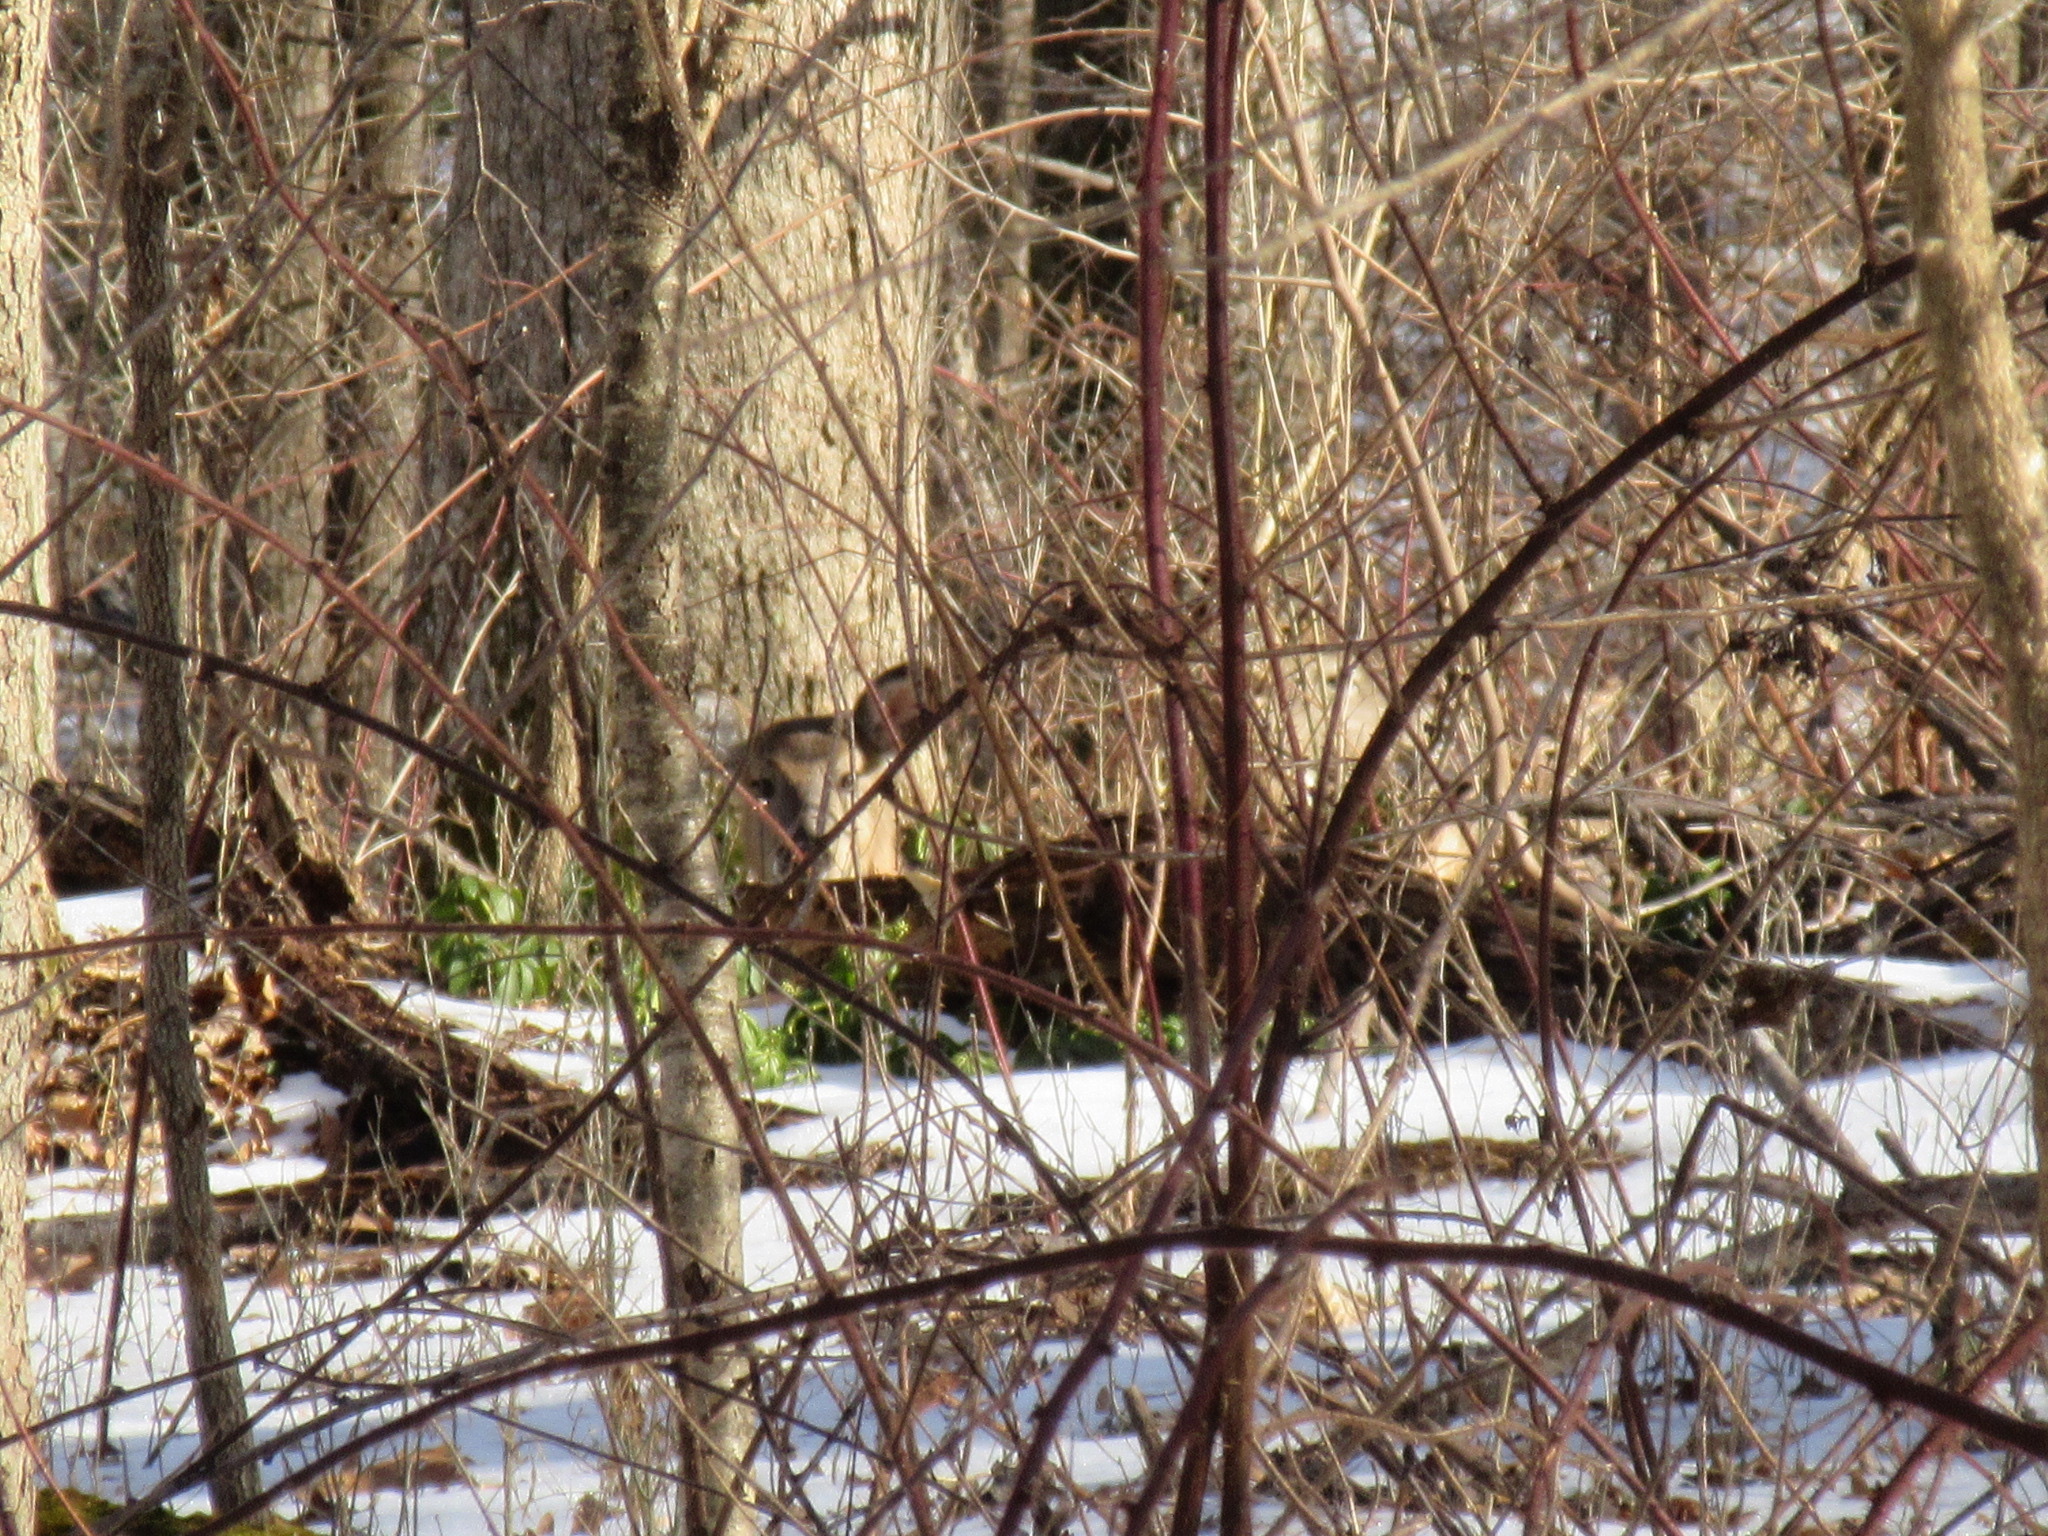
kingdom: Animalia
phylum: Chordata
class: Mammalia
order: Artiodactyla
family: Cervidae
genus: Odocoileus
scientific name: Odocoileus virginianus
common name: White-tailed deer
